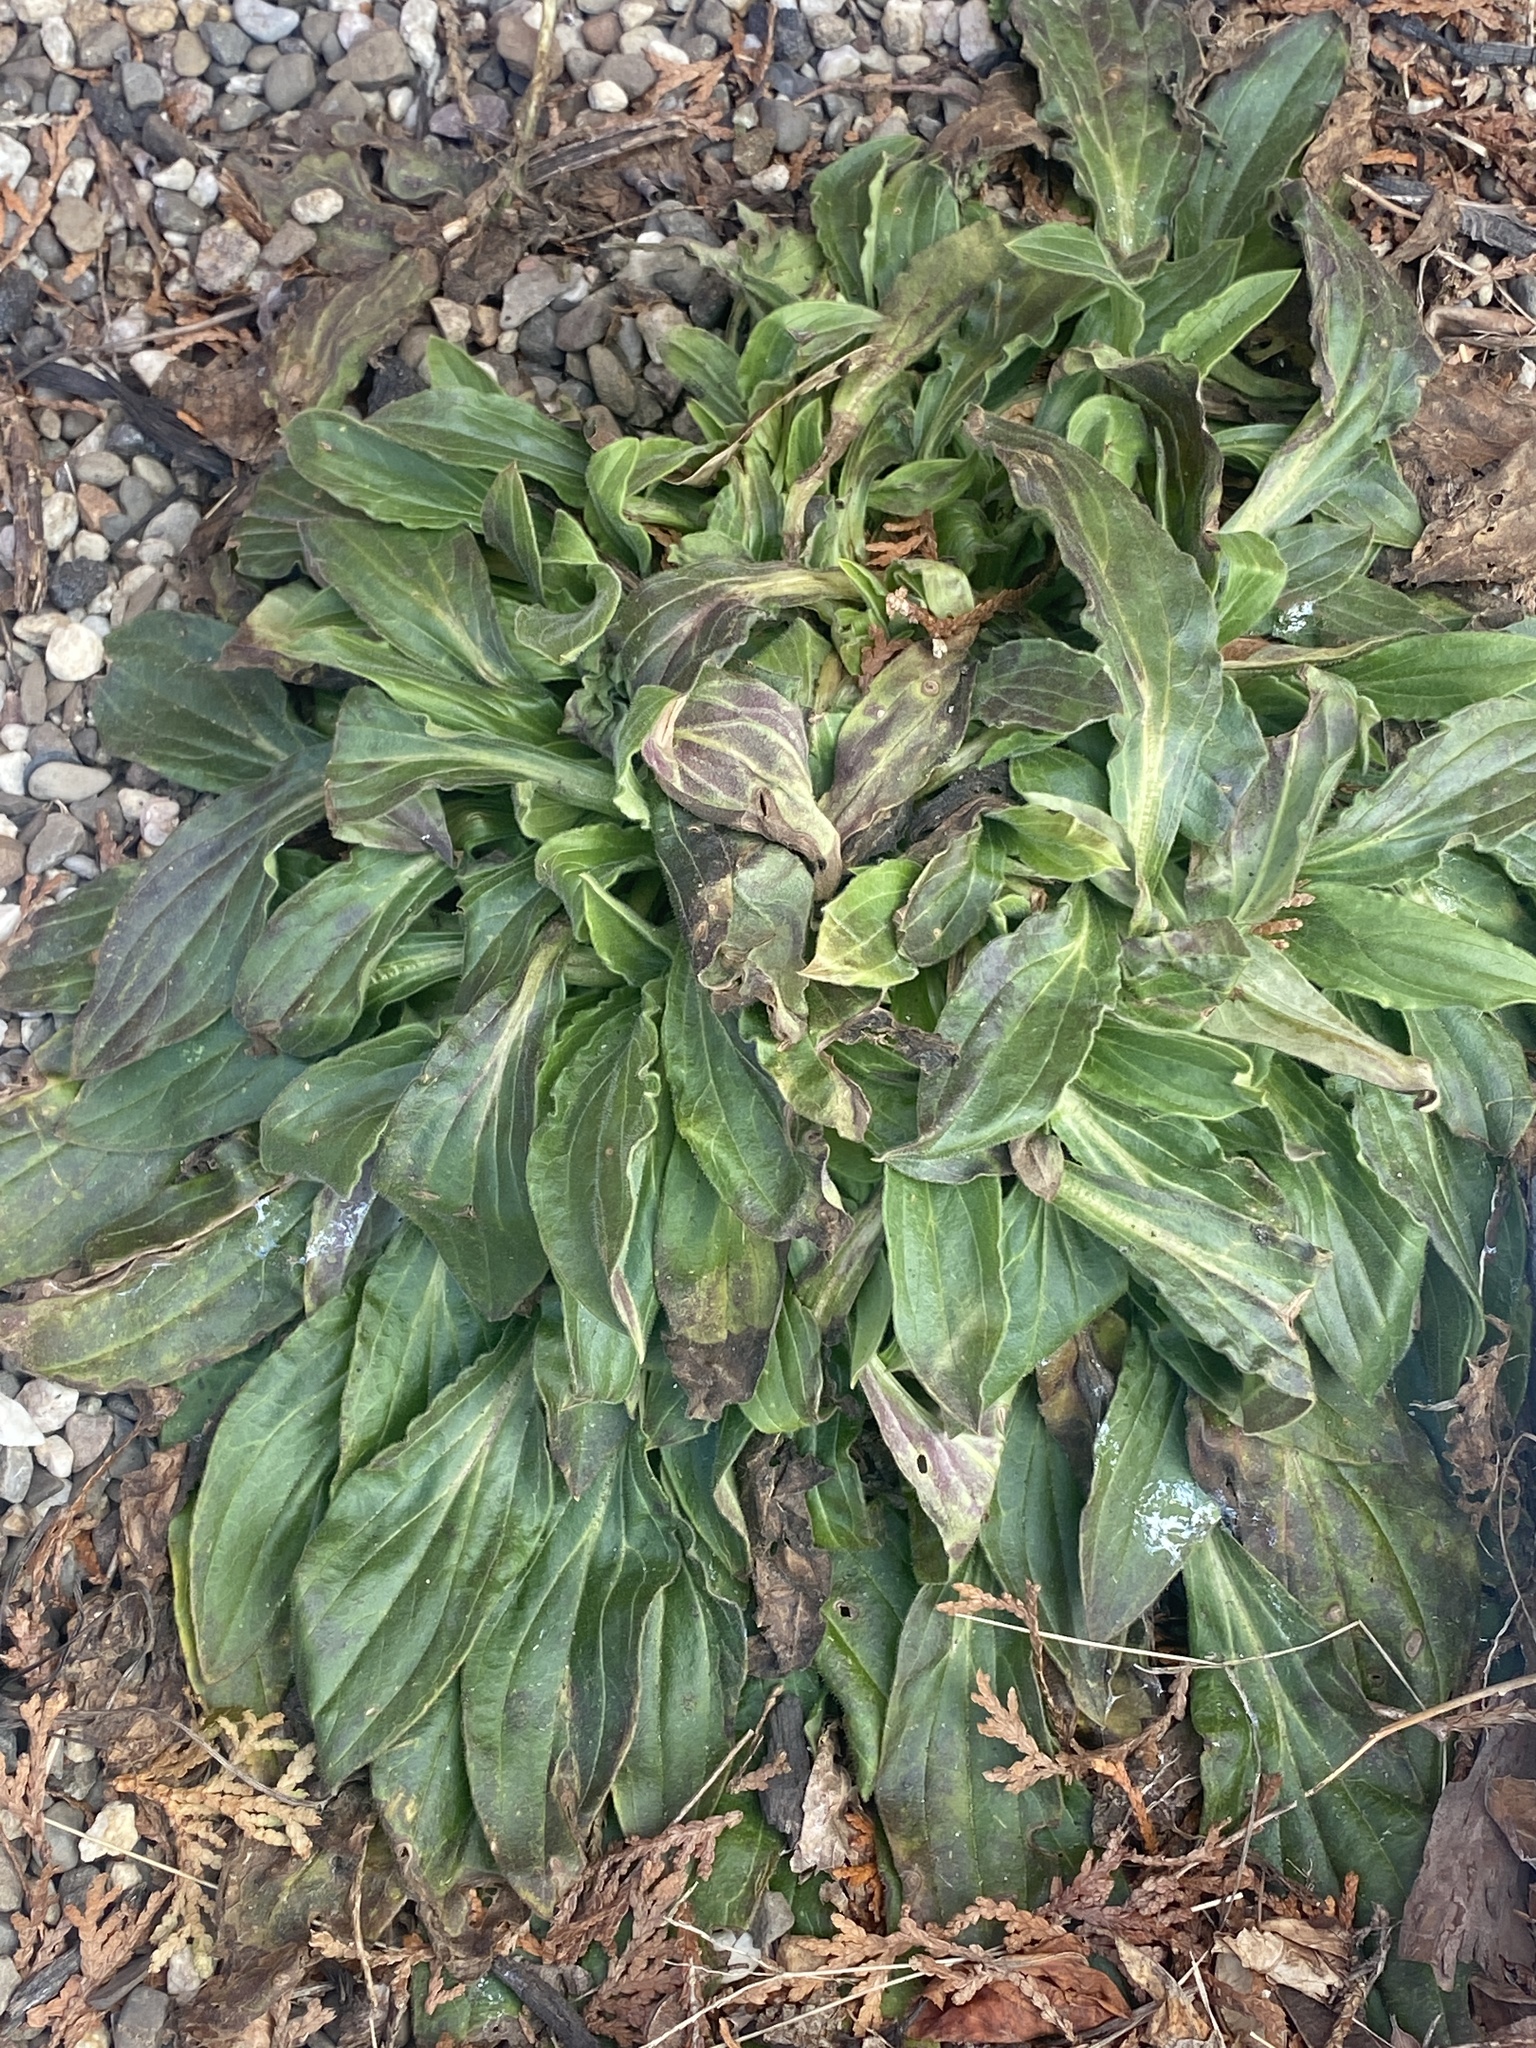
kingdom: Plantae
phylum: Tracheophyta
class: Magnoliopsida
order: Caryophyllales
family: Caryophyllaceae
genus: Silene
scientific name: Silene latifolia
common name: White campion
